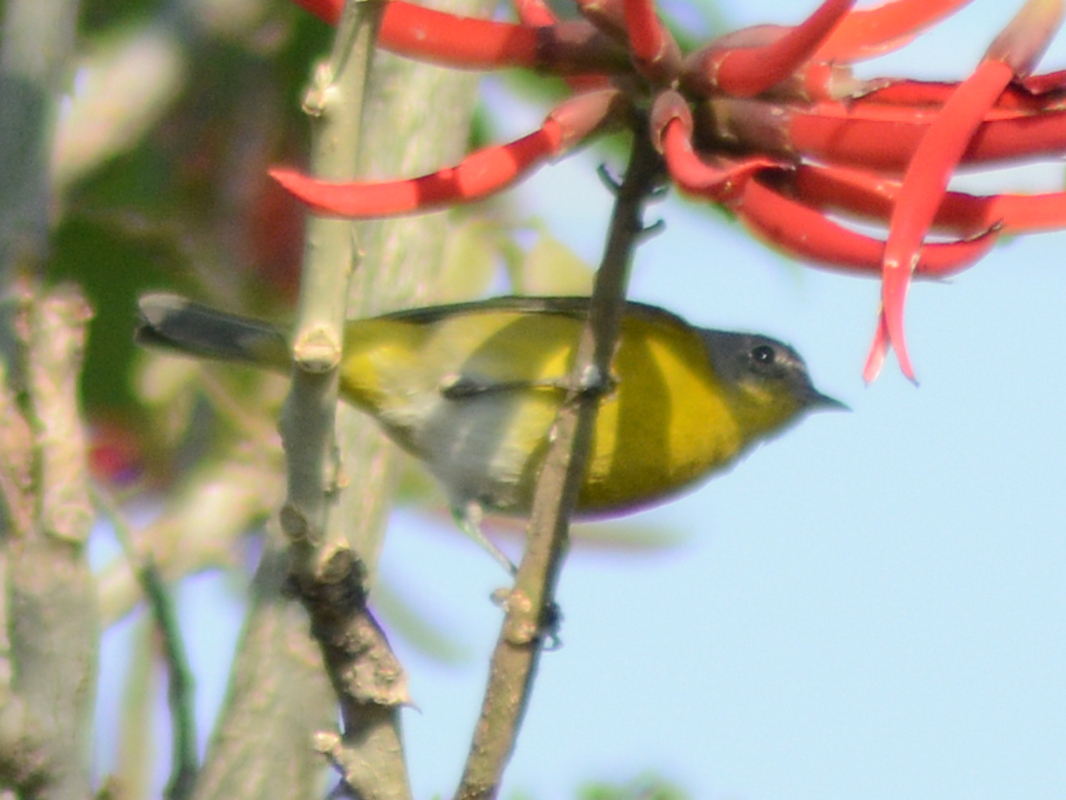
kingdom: Animalia
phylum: Chordata
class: Aves
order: Passeriformes
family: Parulidae
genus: Leiothlypis
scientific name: Leiothlypis ruficapilla
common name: Nashville warbler
